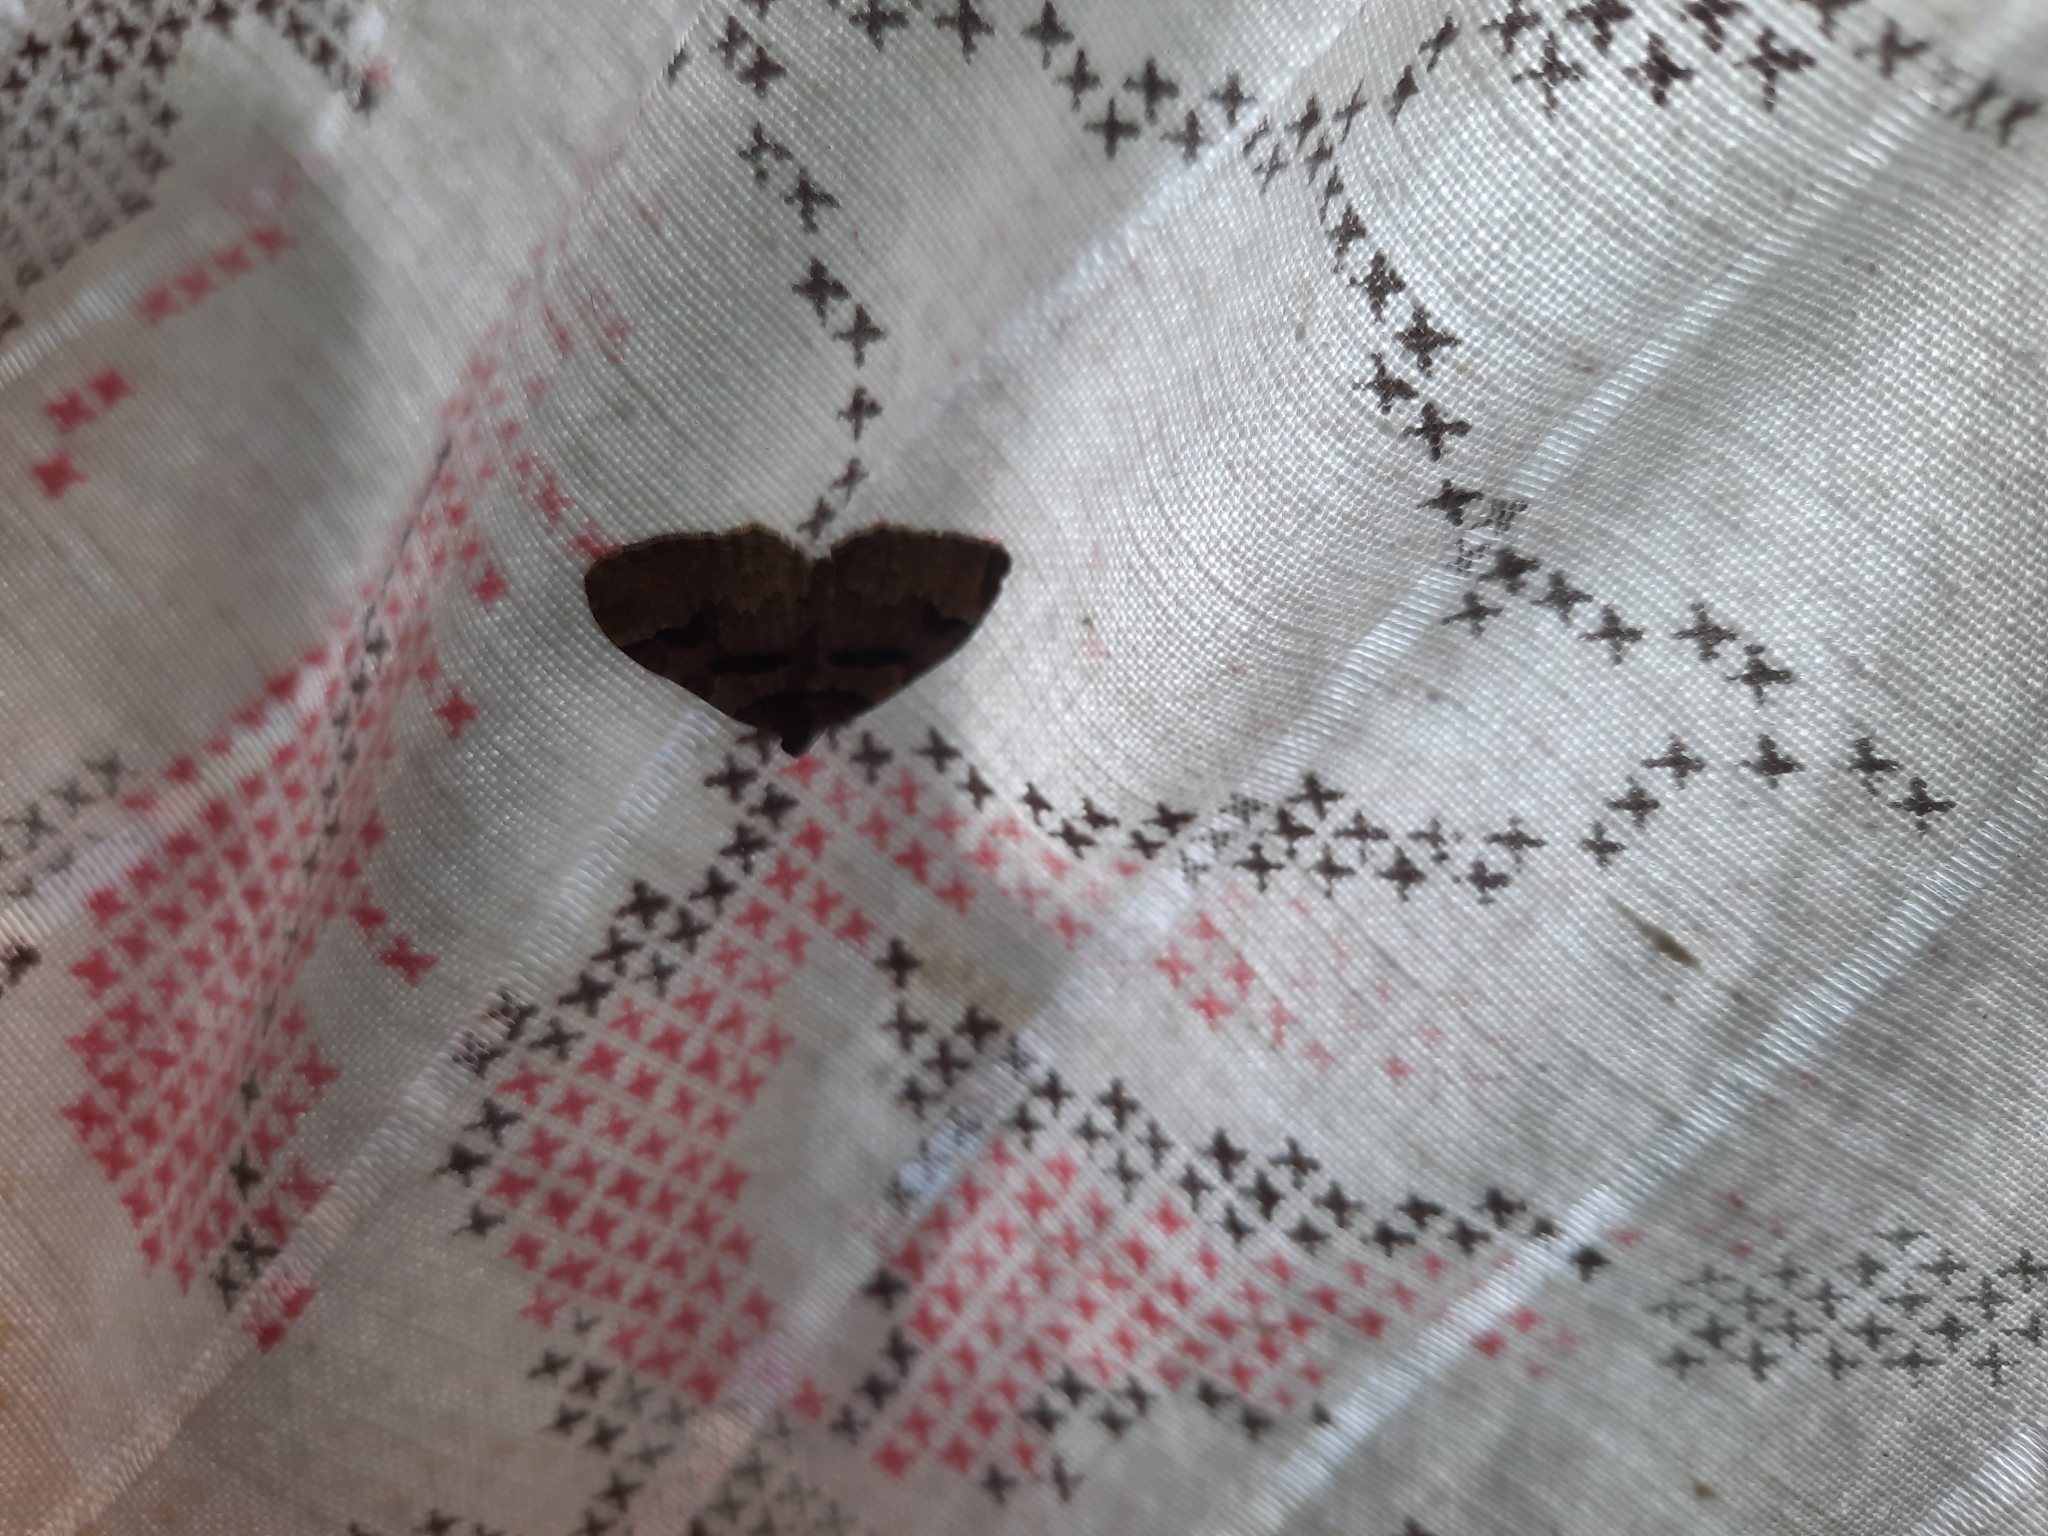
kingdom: Animalia
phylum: Arthropoda
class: Insecta
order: Lepidoptera
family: Geometridae
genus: Catarhoe
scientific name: Catarhoe rubidata
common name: Ruddy carpet
